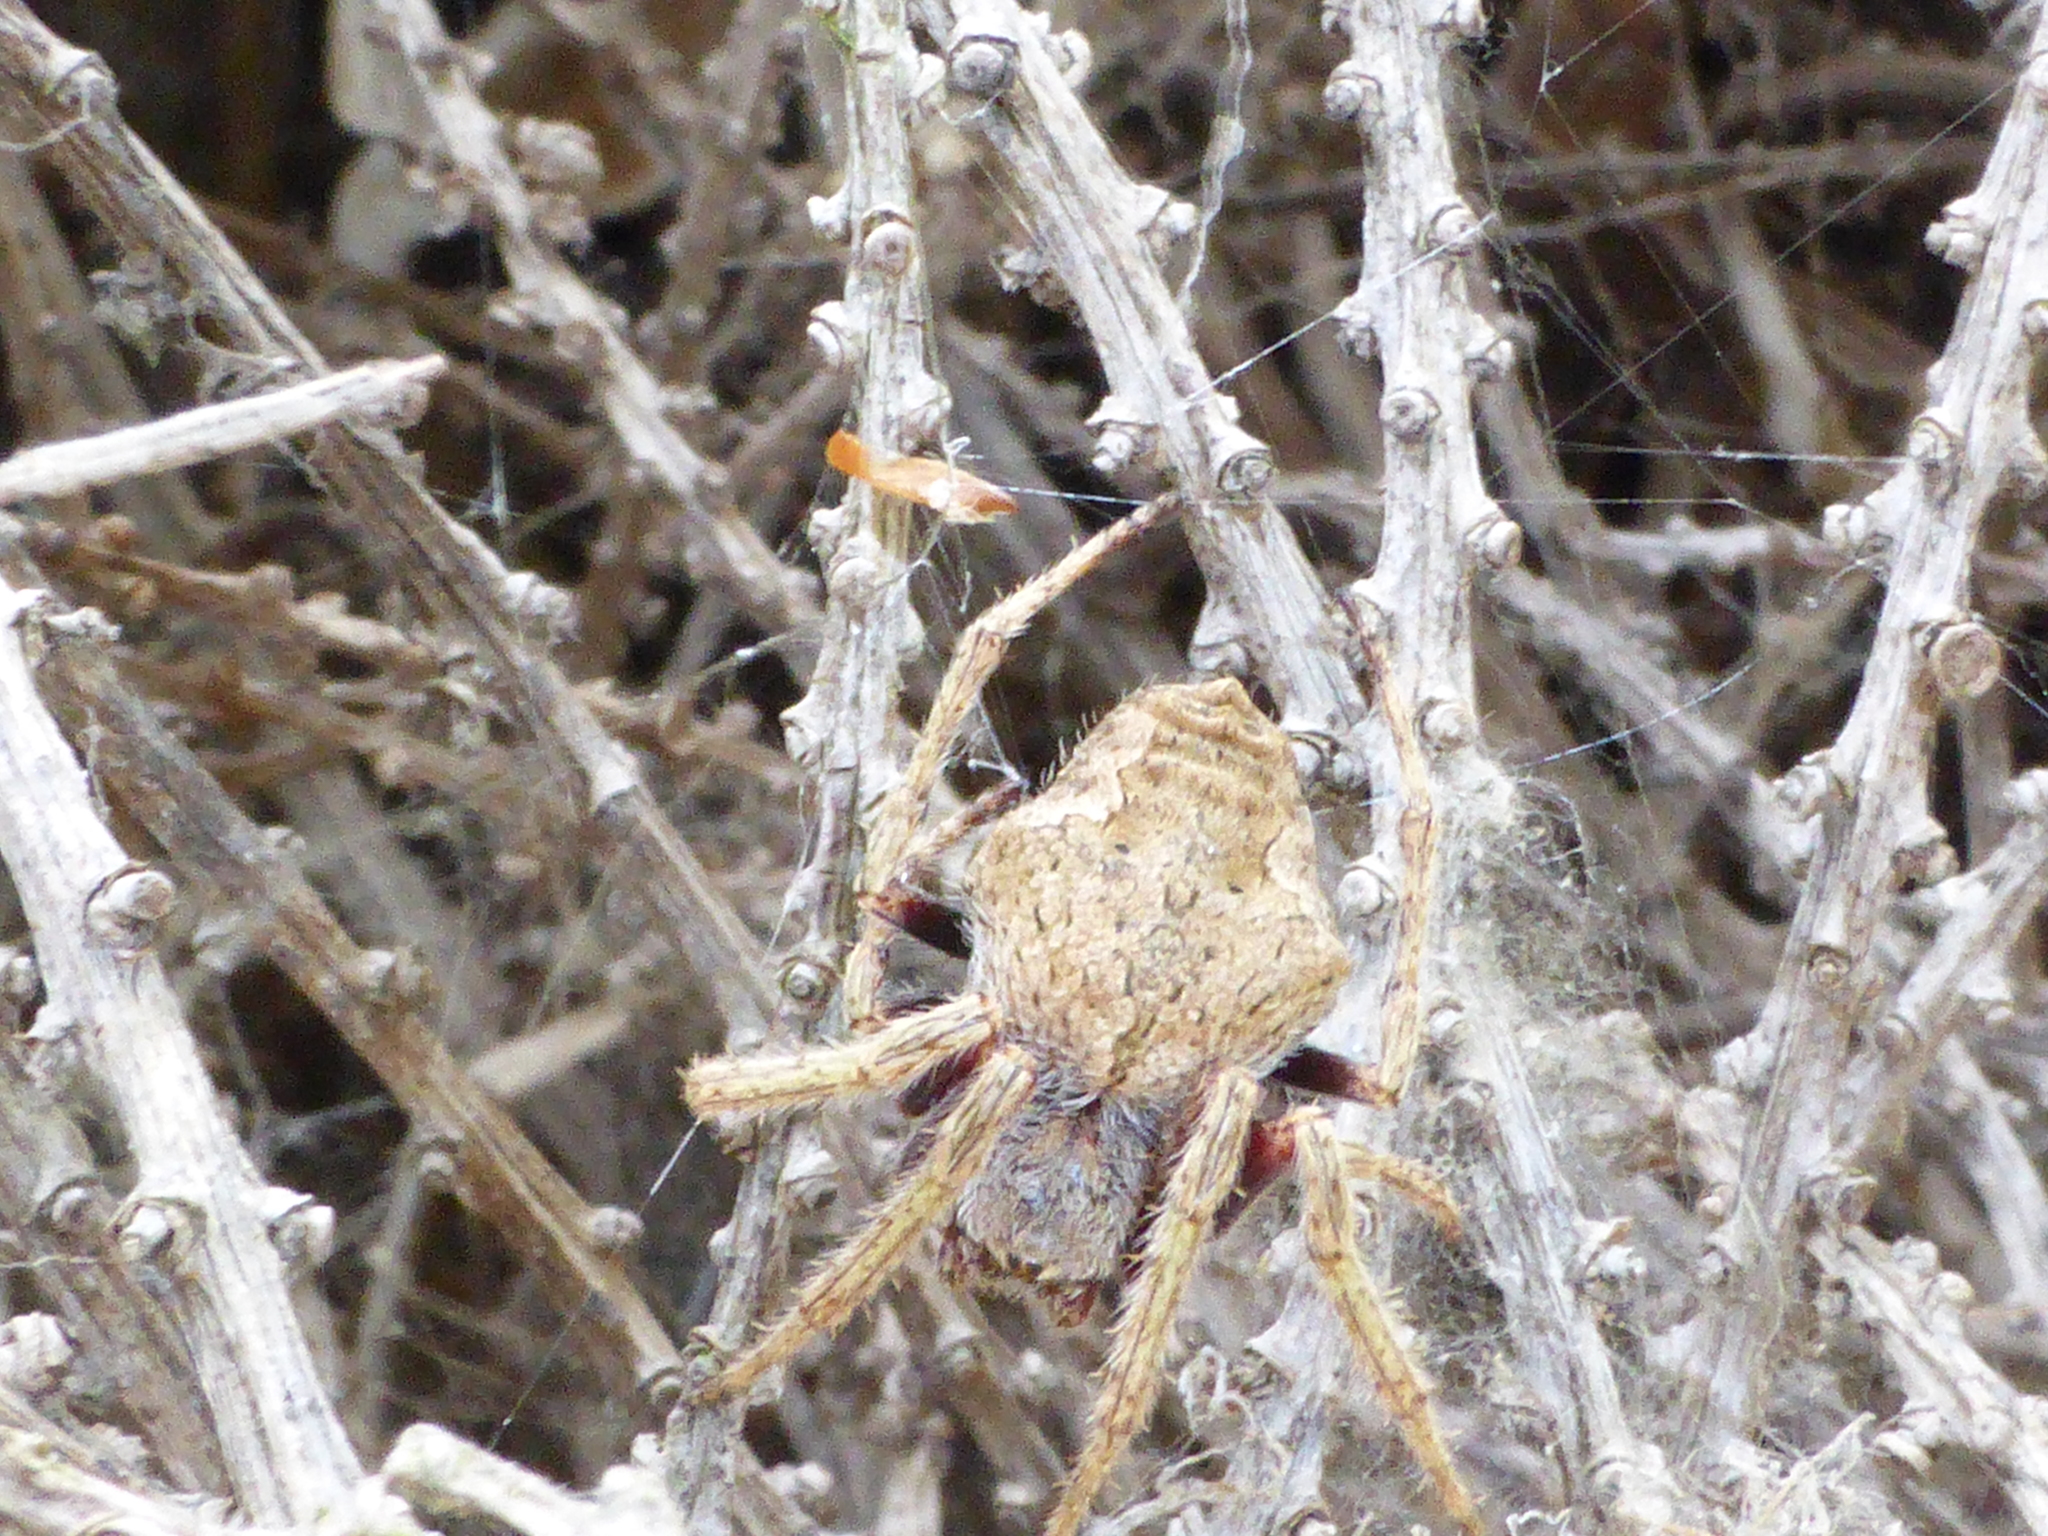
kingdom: Animalia
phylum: Arthropoda
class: Arachnida
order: Araneae
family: Araneidae
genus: Eriophora
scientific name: Eriophora pustulosa
